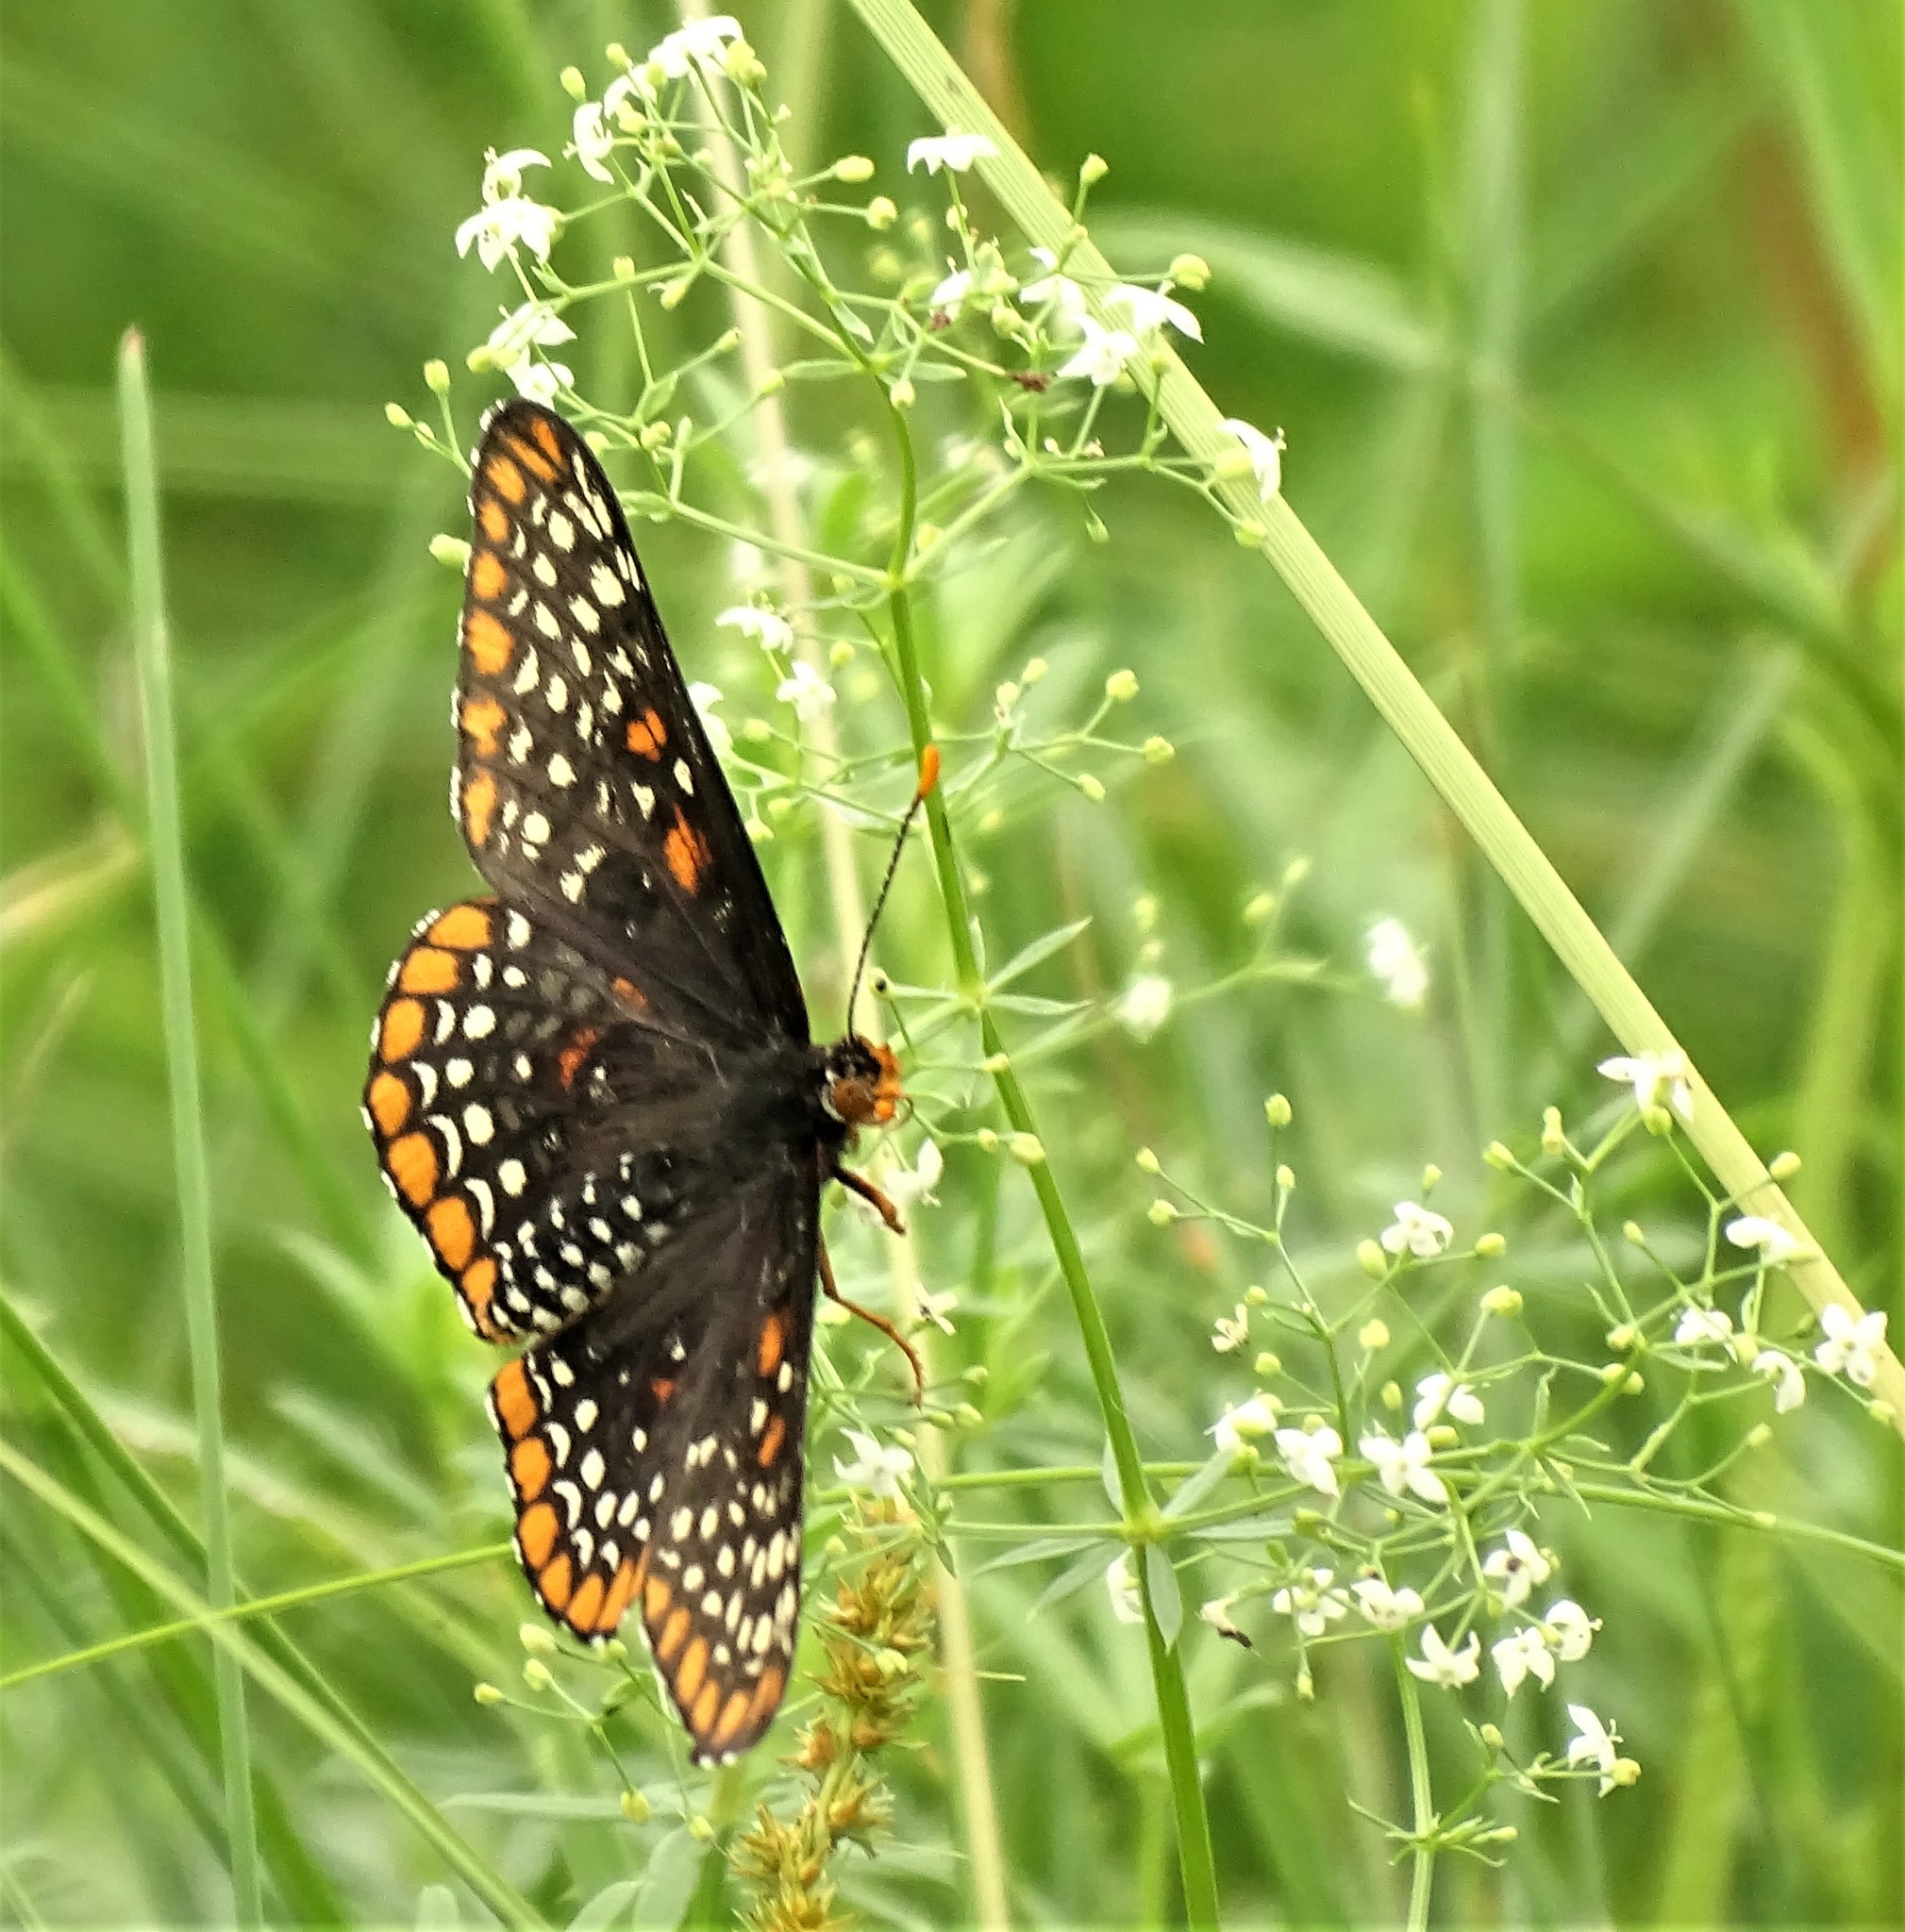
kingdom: Animalia
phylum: Arthropoda
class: Insecta
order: Lepidoptera
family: Nymphalidae
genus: Euphydryas
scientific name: Euphydryas phaeton
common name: Baltimore checkerspot
